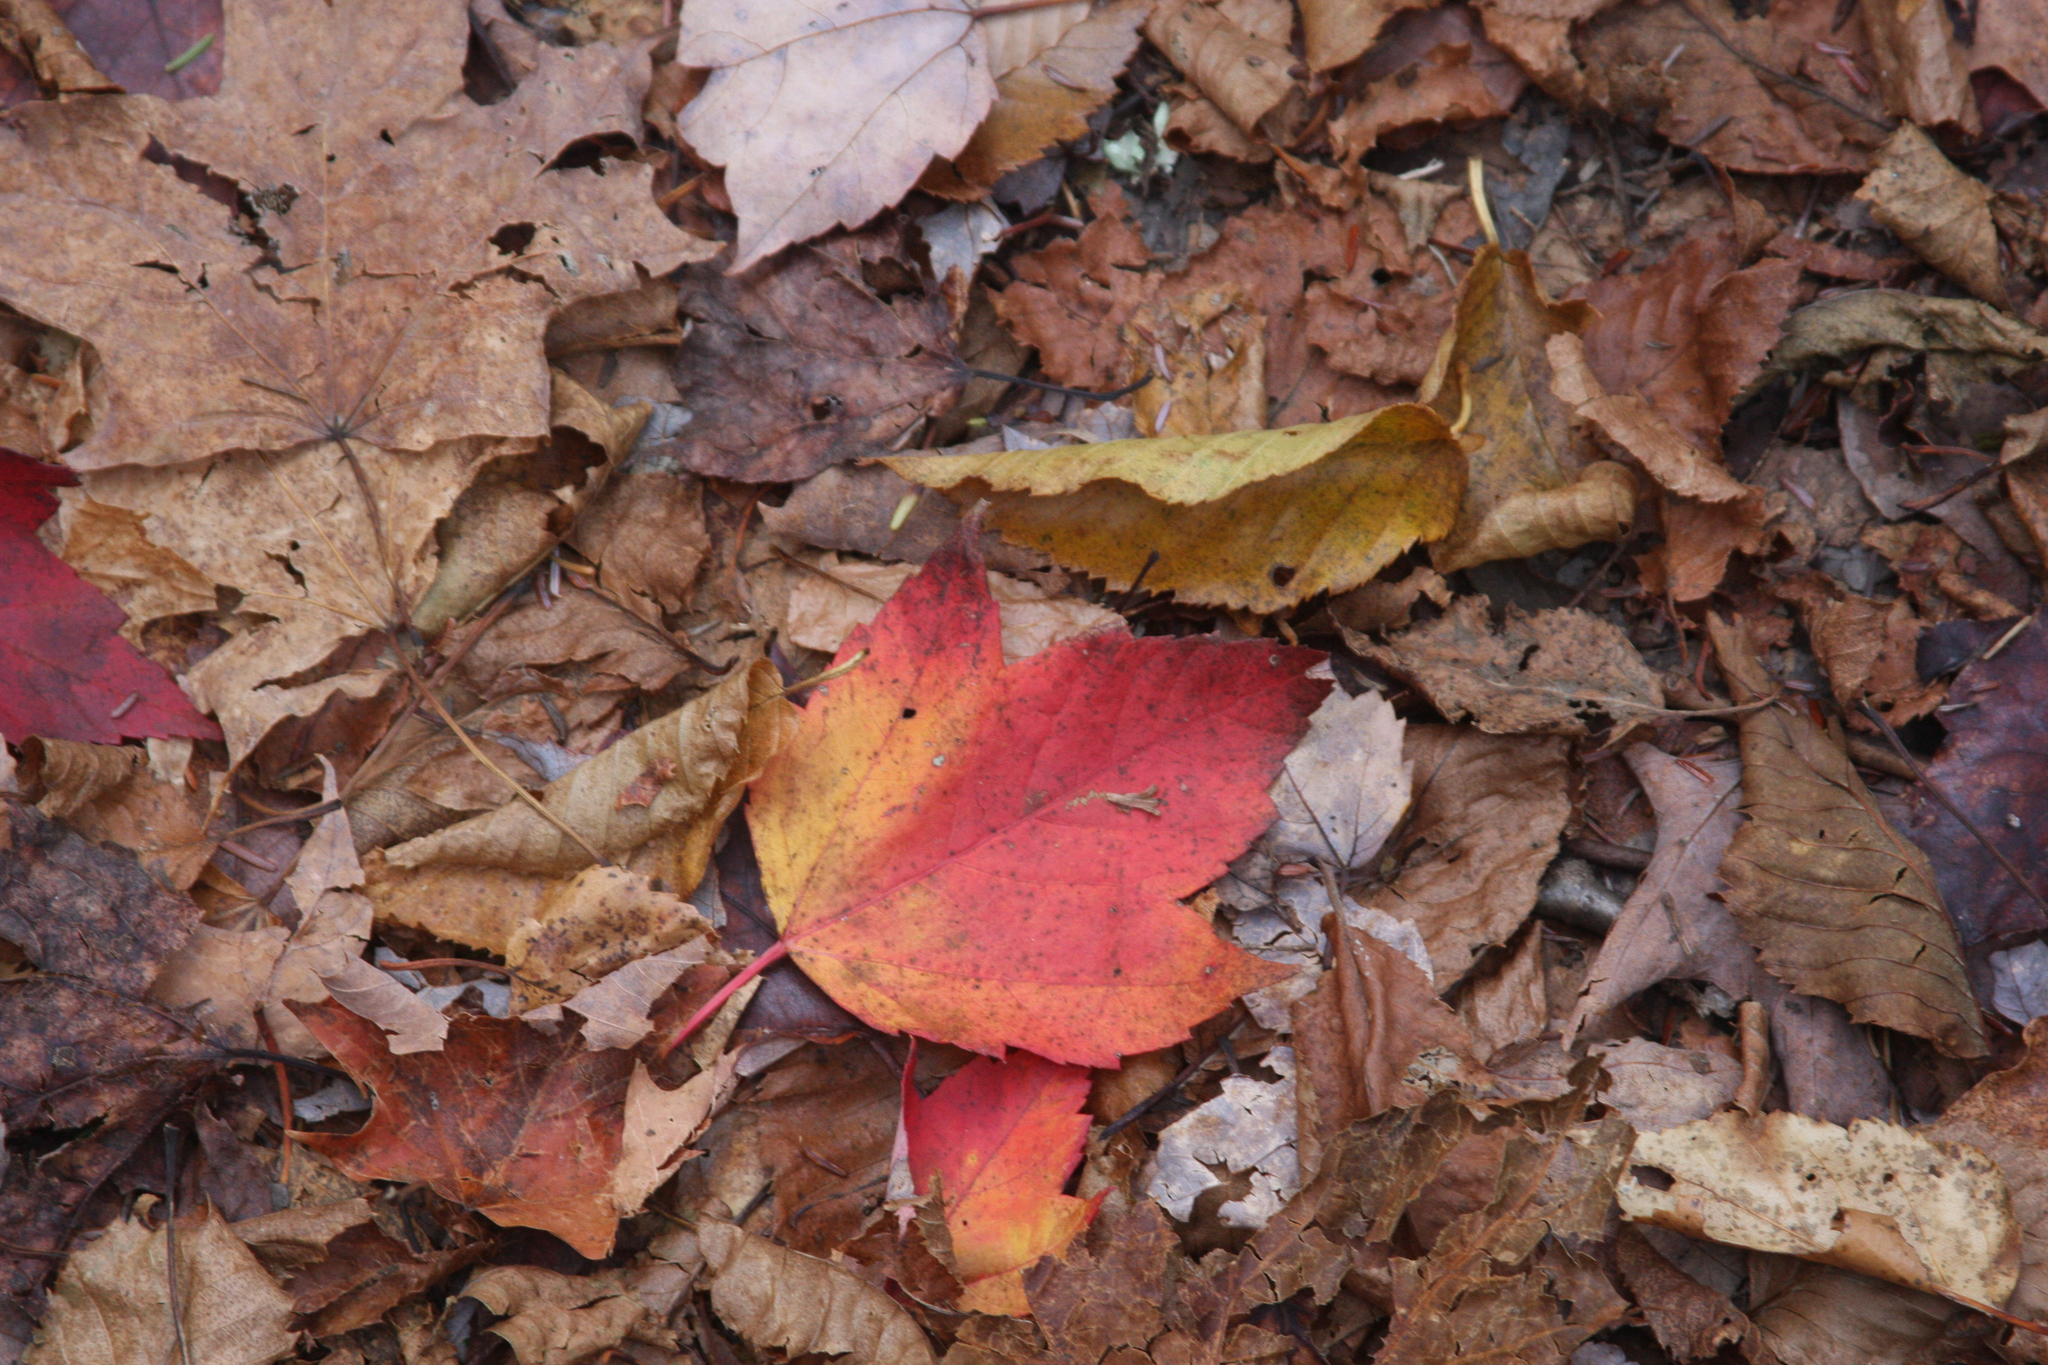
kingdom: Plantae
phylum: Tracheophyta
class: Magnoliopsida
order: Sapindales
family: Sapindaceae
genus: Acer
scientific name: Acer rubrum
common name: Red maple
